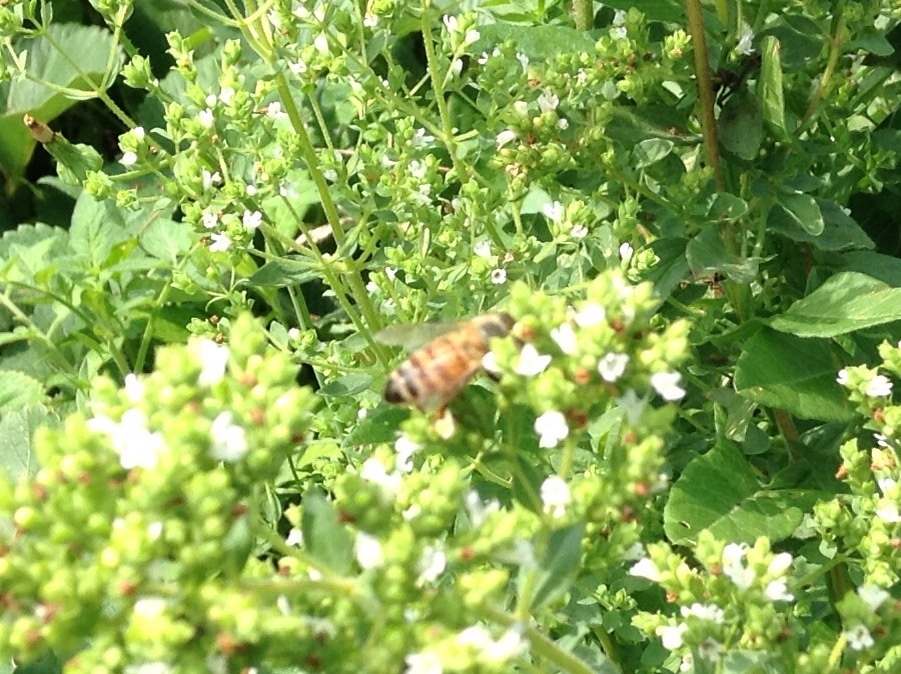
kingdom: Animalia
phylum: Arthropoda
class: Insecta
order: Hymenoptera
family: Apidae
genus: Apis
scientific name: Apis mellifera
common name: Honey bee
